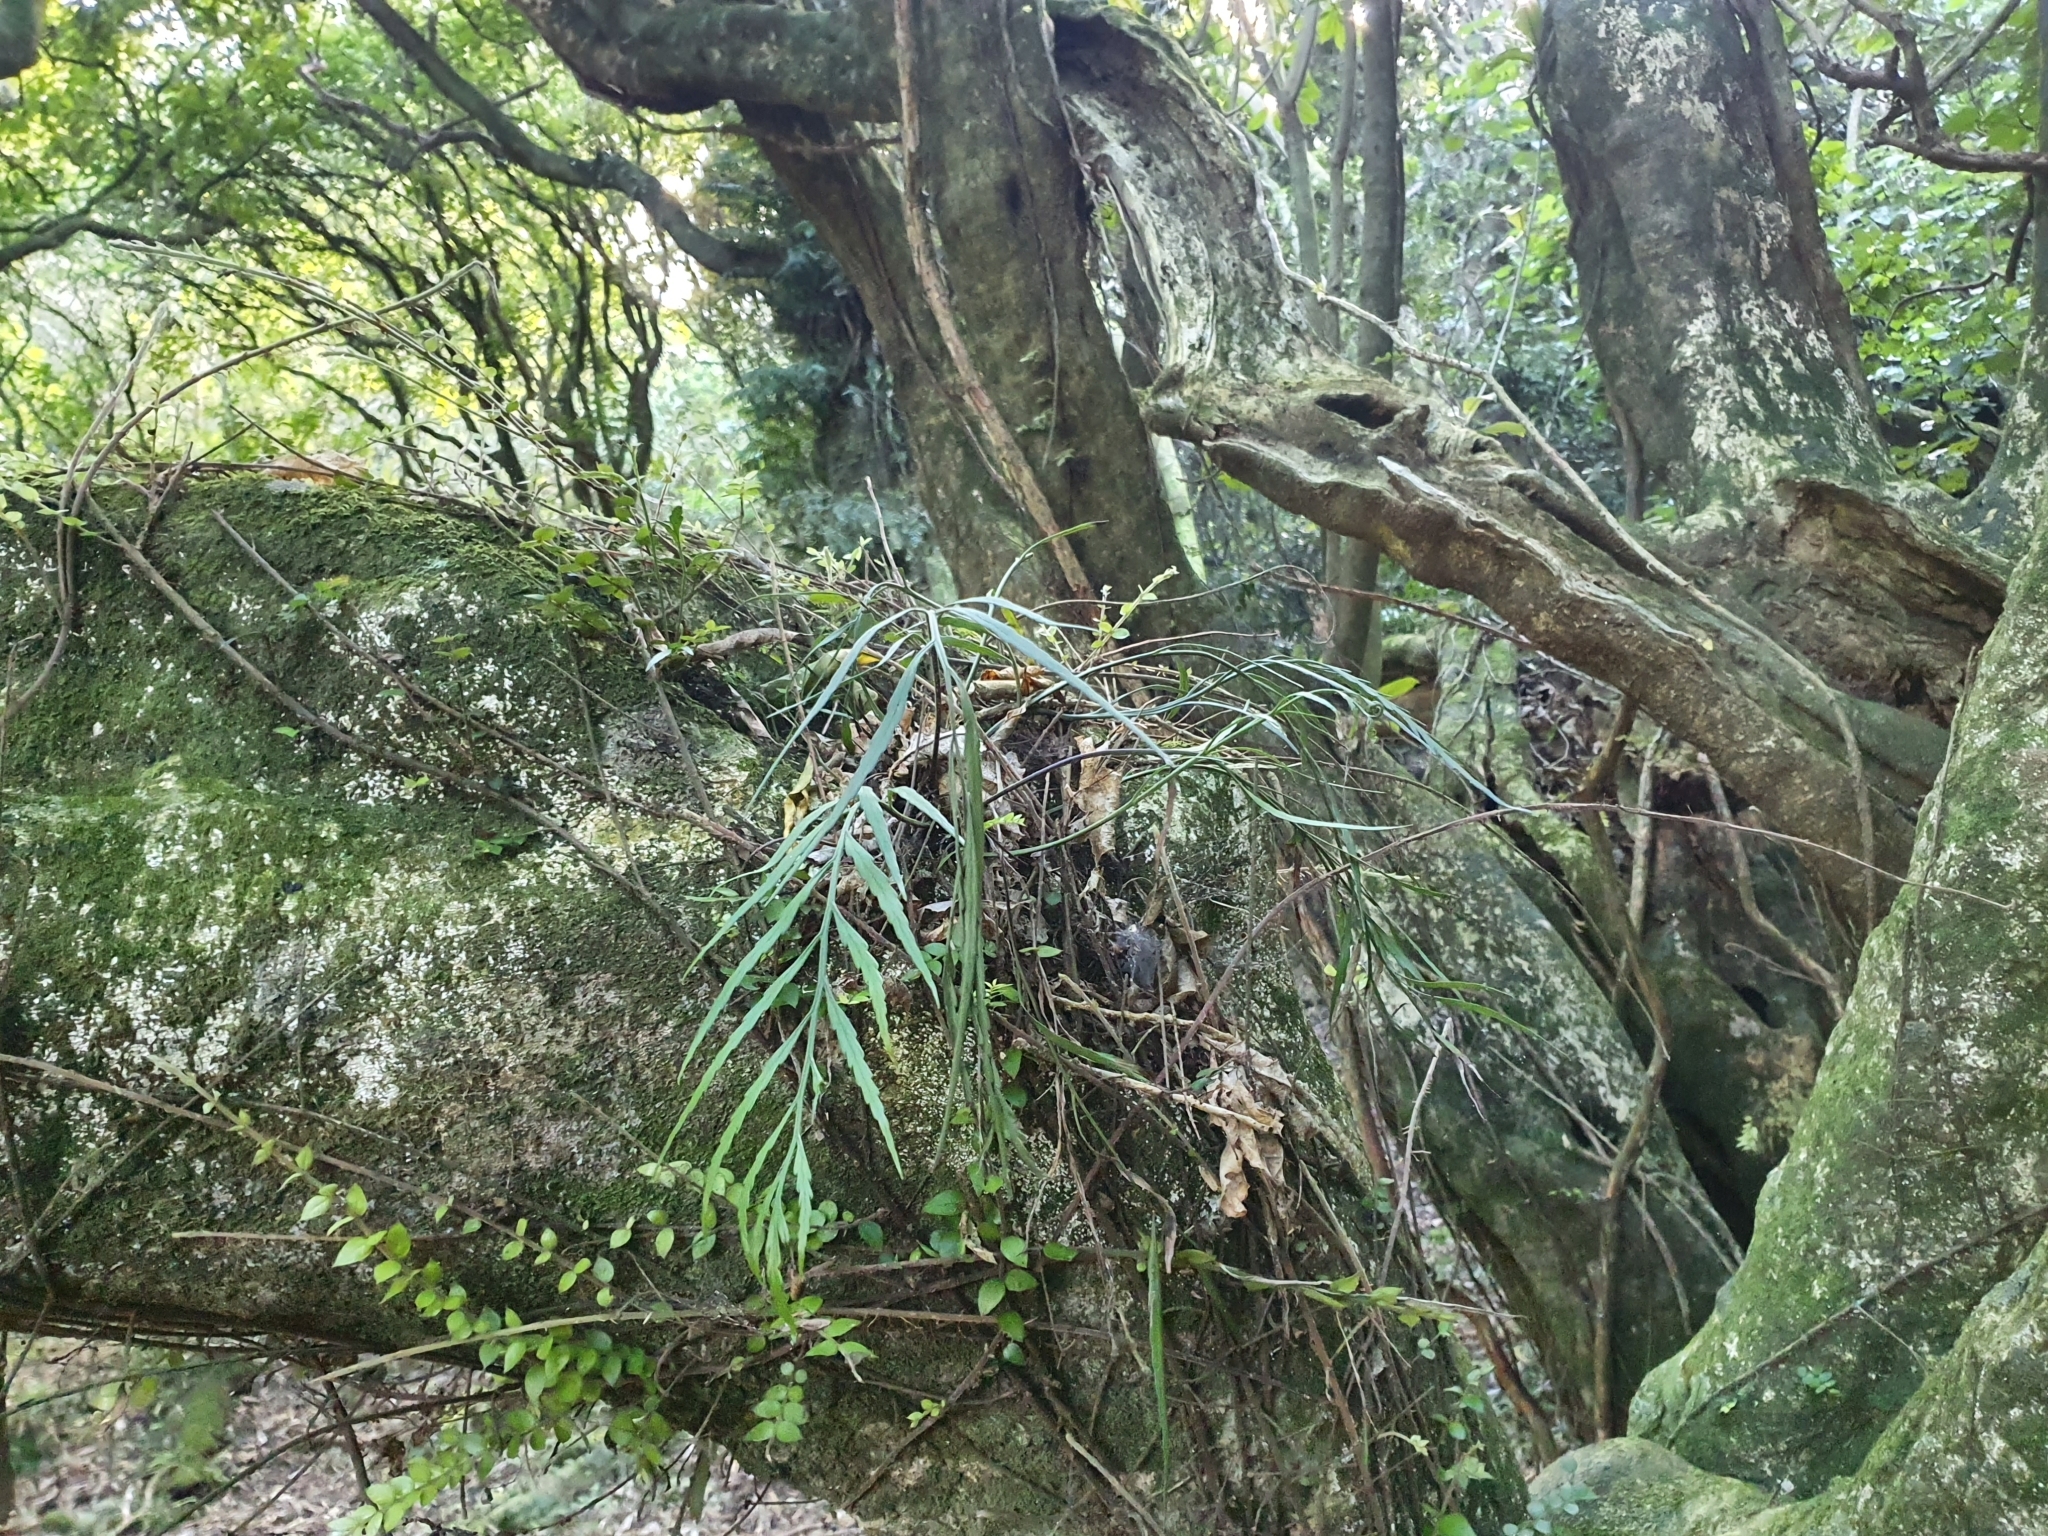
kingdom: Plantae
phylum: Tracheophyta
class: Polypodiopsida
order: Polypodiales
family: Aspleniaceae
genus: Asplenium
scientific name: Asplenium flaccidum
